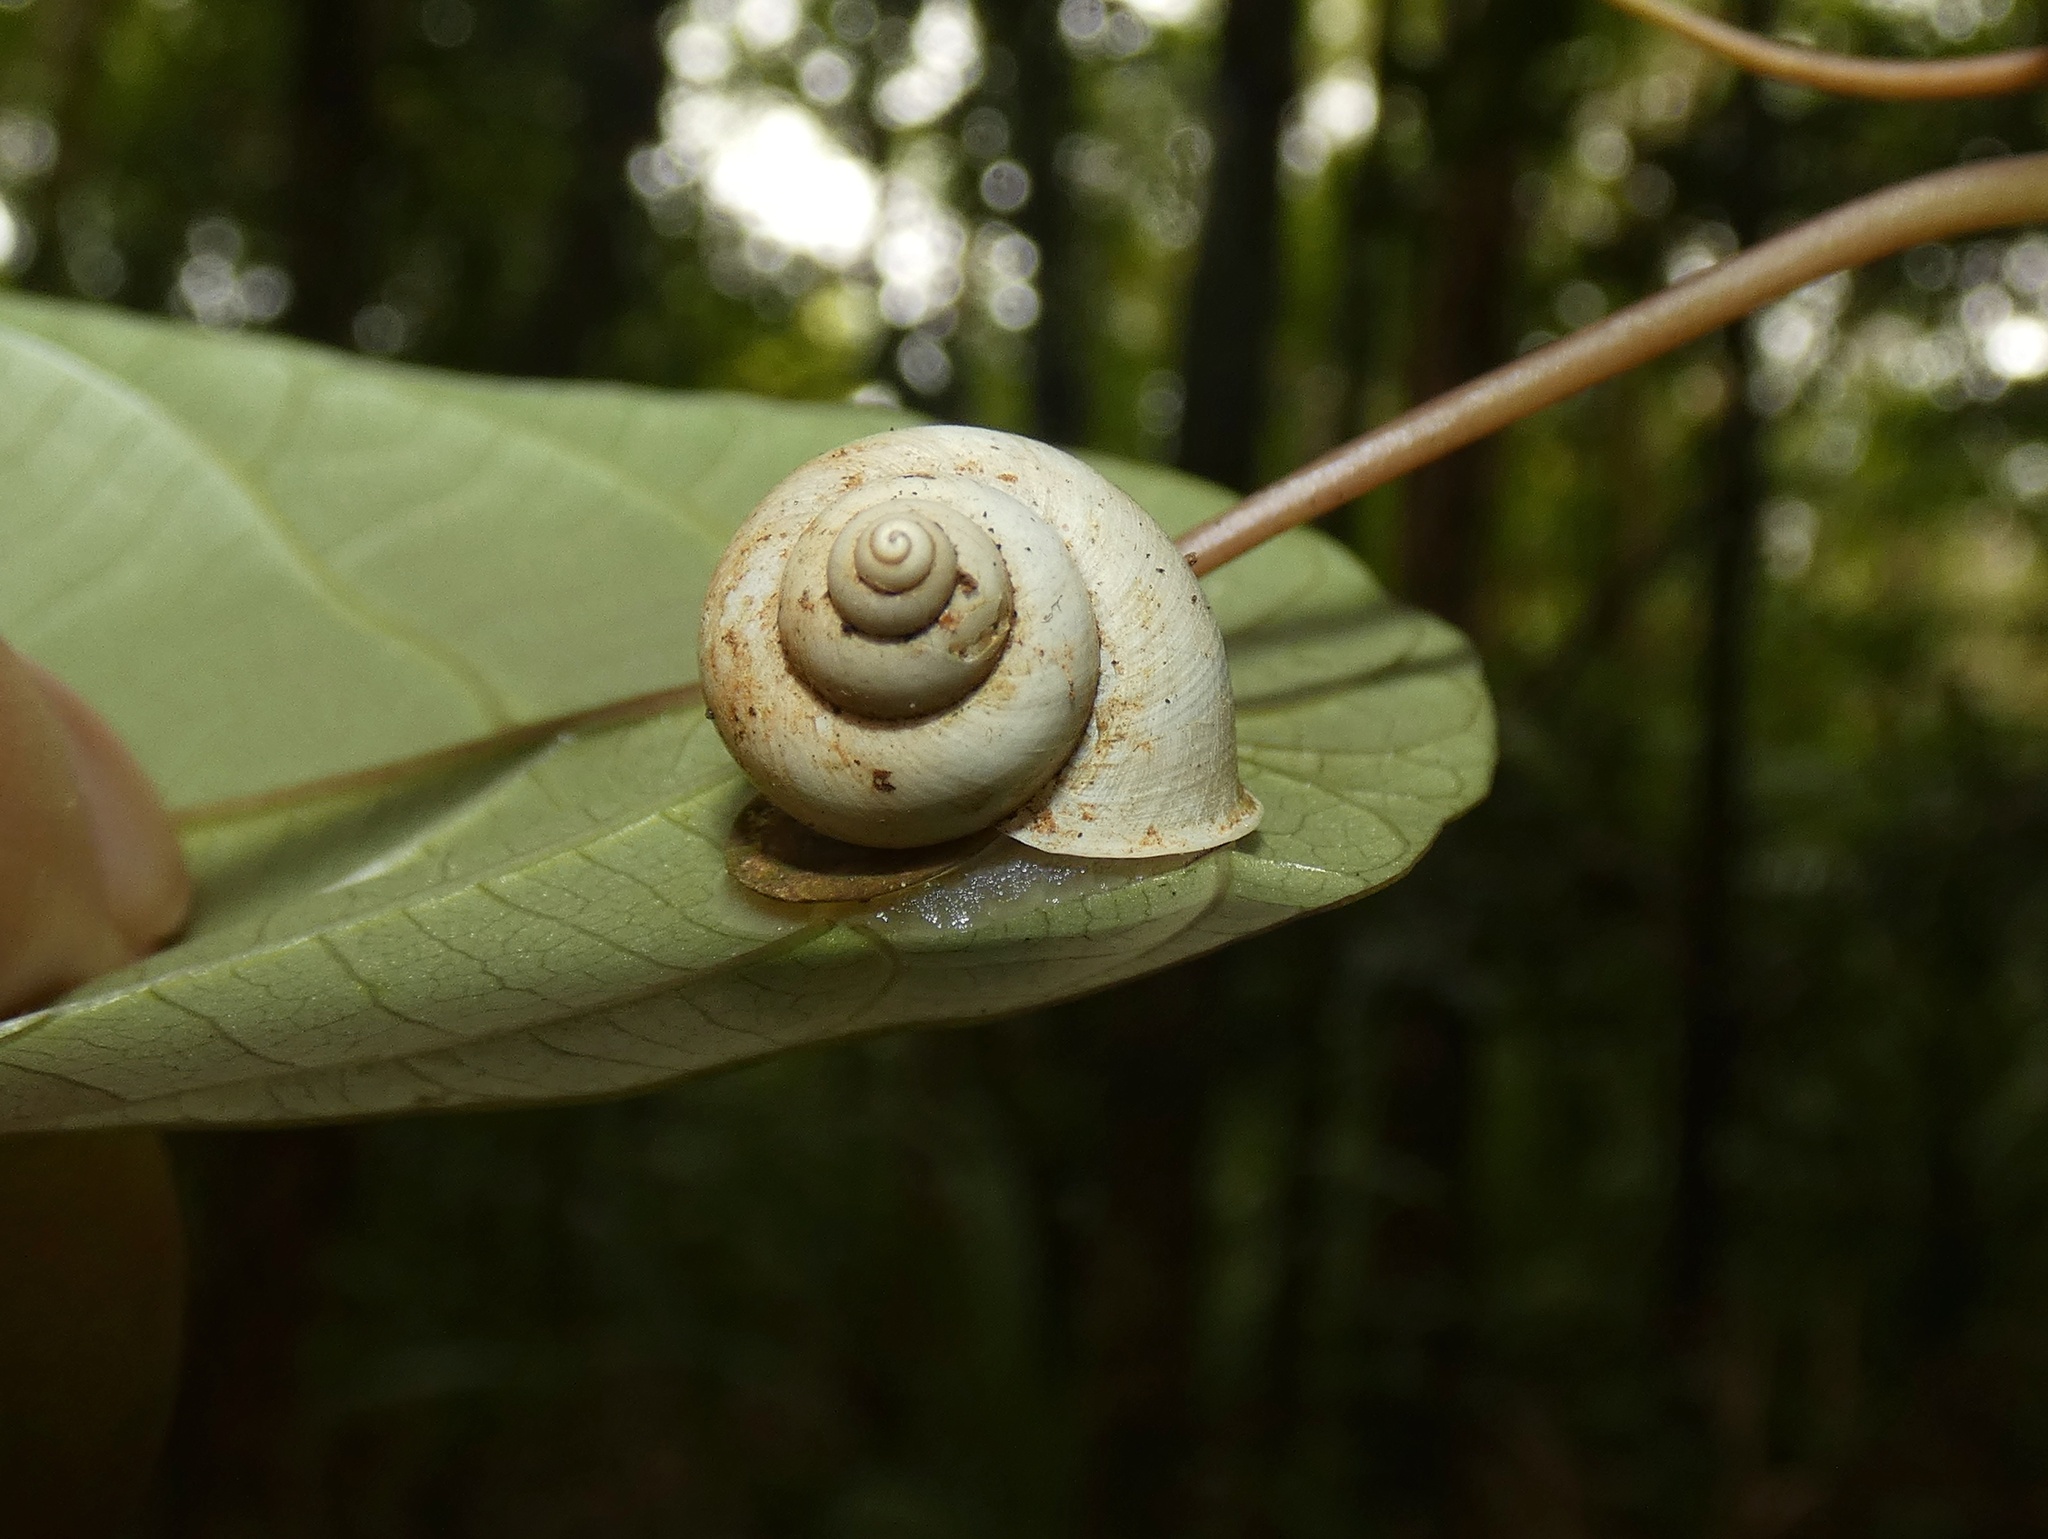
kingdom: Animalia
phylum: Mollusca
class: Gastropoda
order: Architaenioglossa
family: Cyclophoridae
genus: Leptopoma
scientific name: Leptopoma perlucidum
